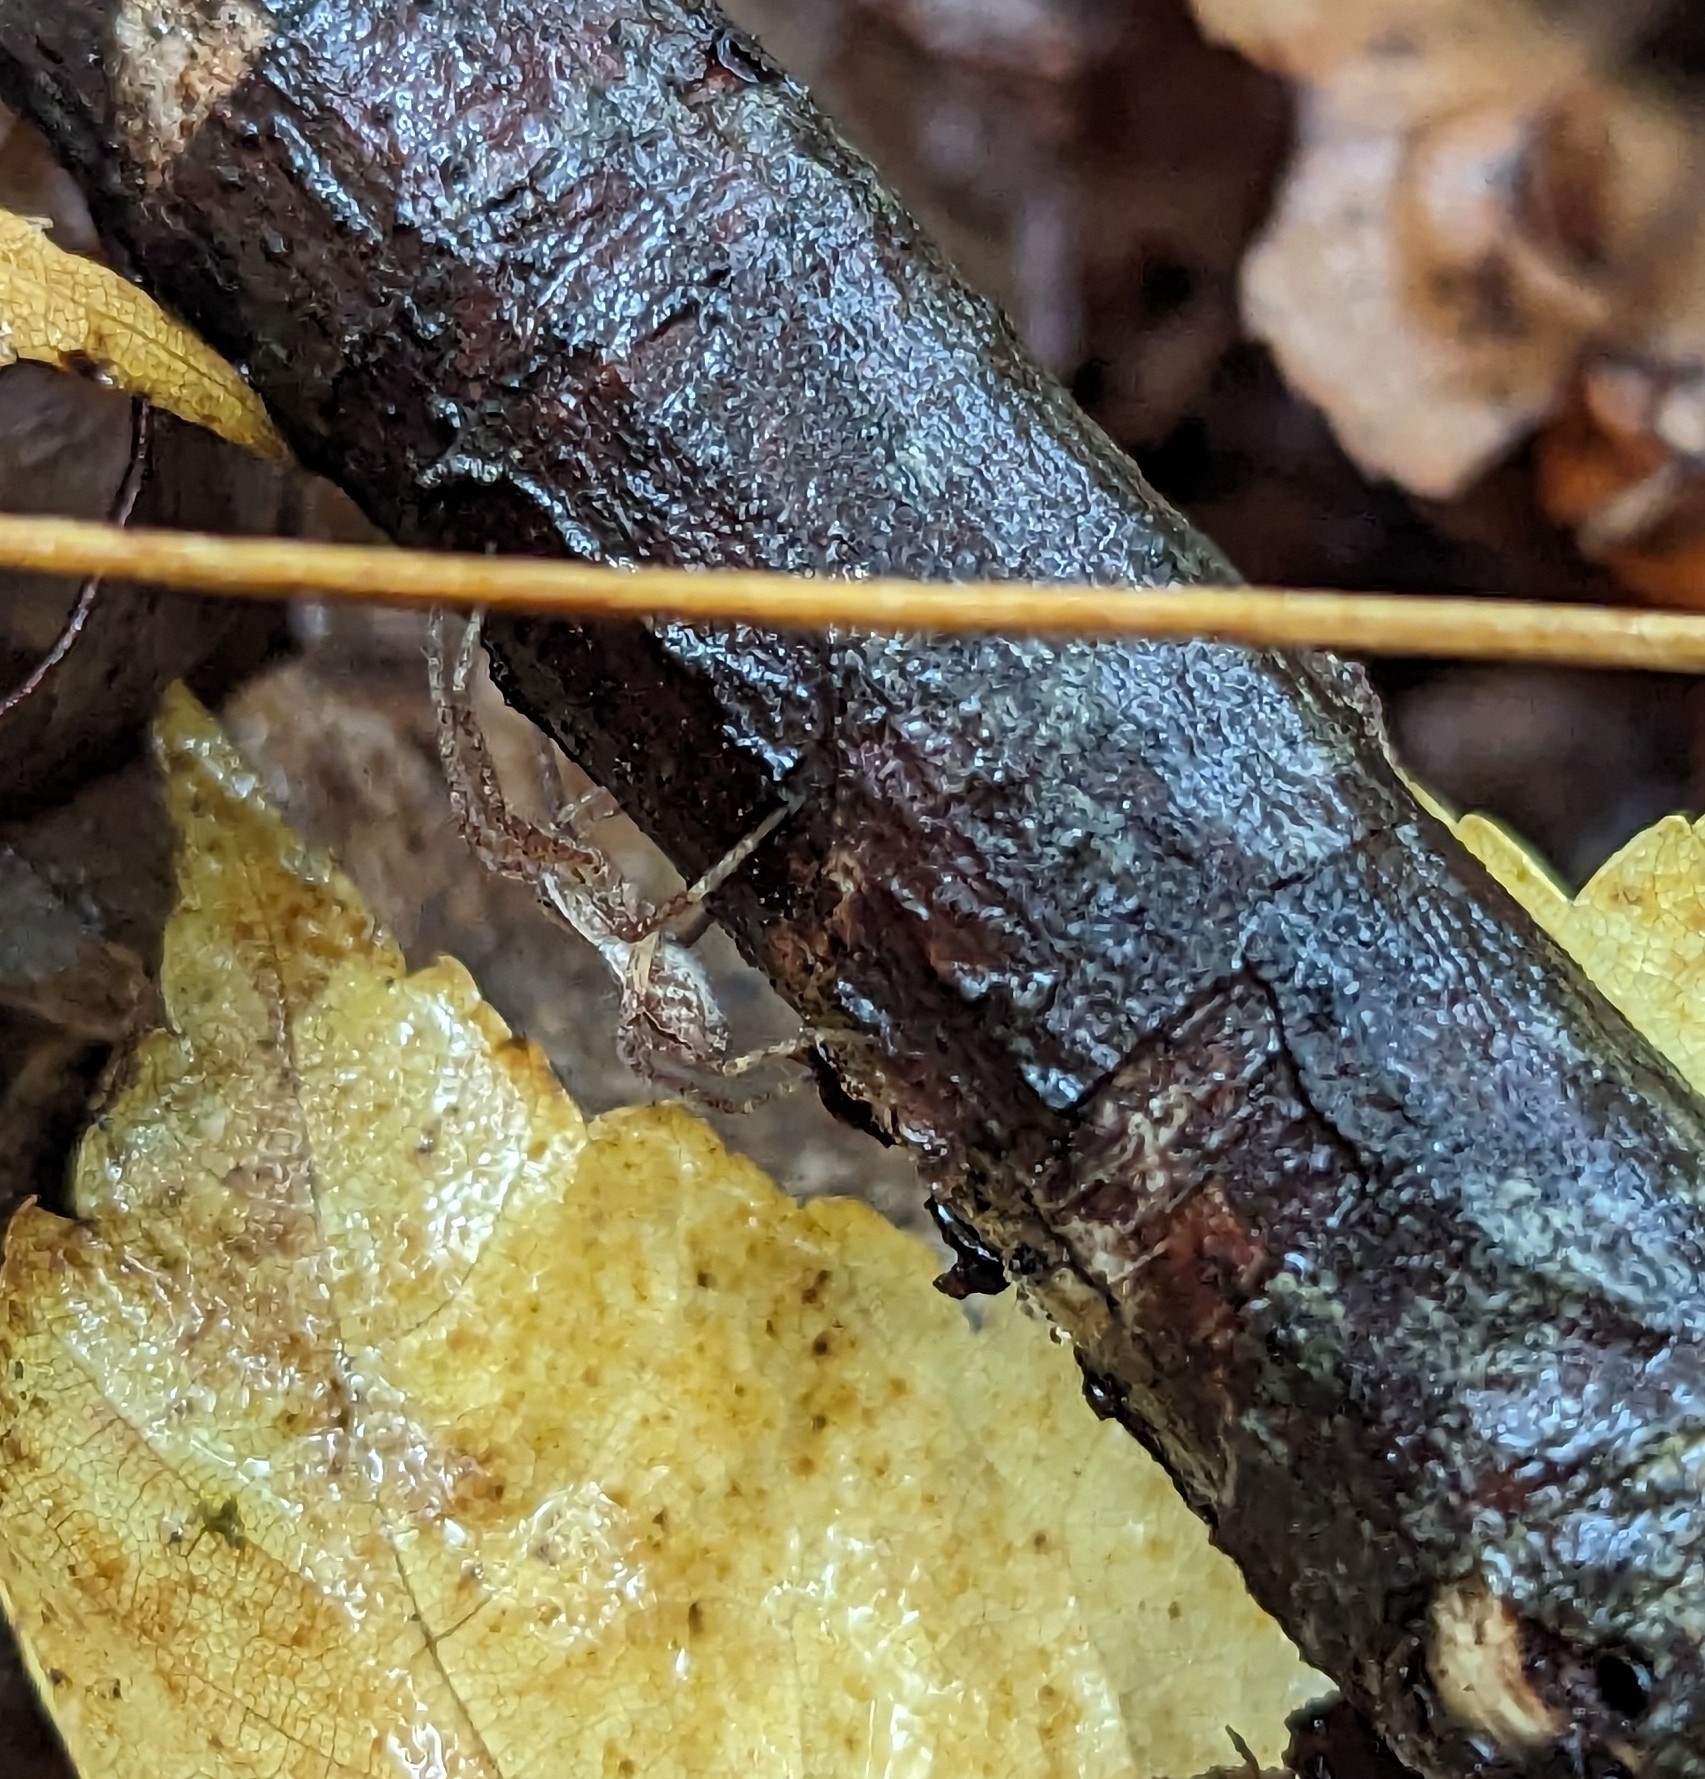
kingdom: Animalia
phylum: Arthropoda
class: Arachnida
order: Araneae
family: Pisauridae
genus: Pisaurina
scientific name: Pisaurina mira
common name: American nursery web spider
